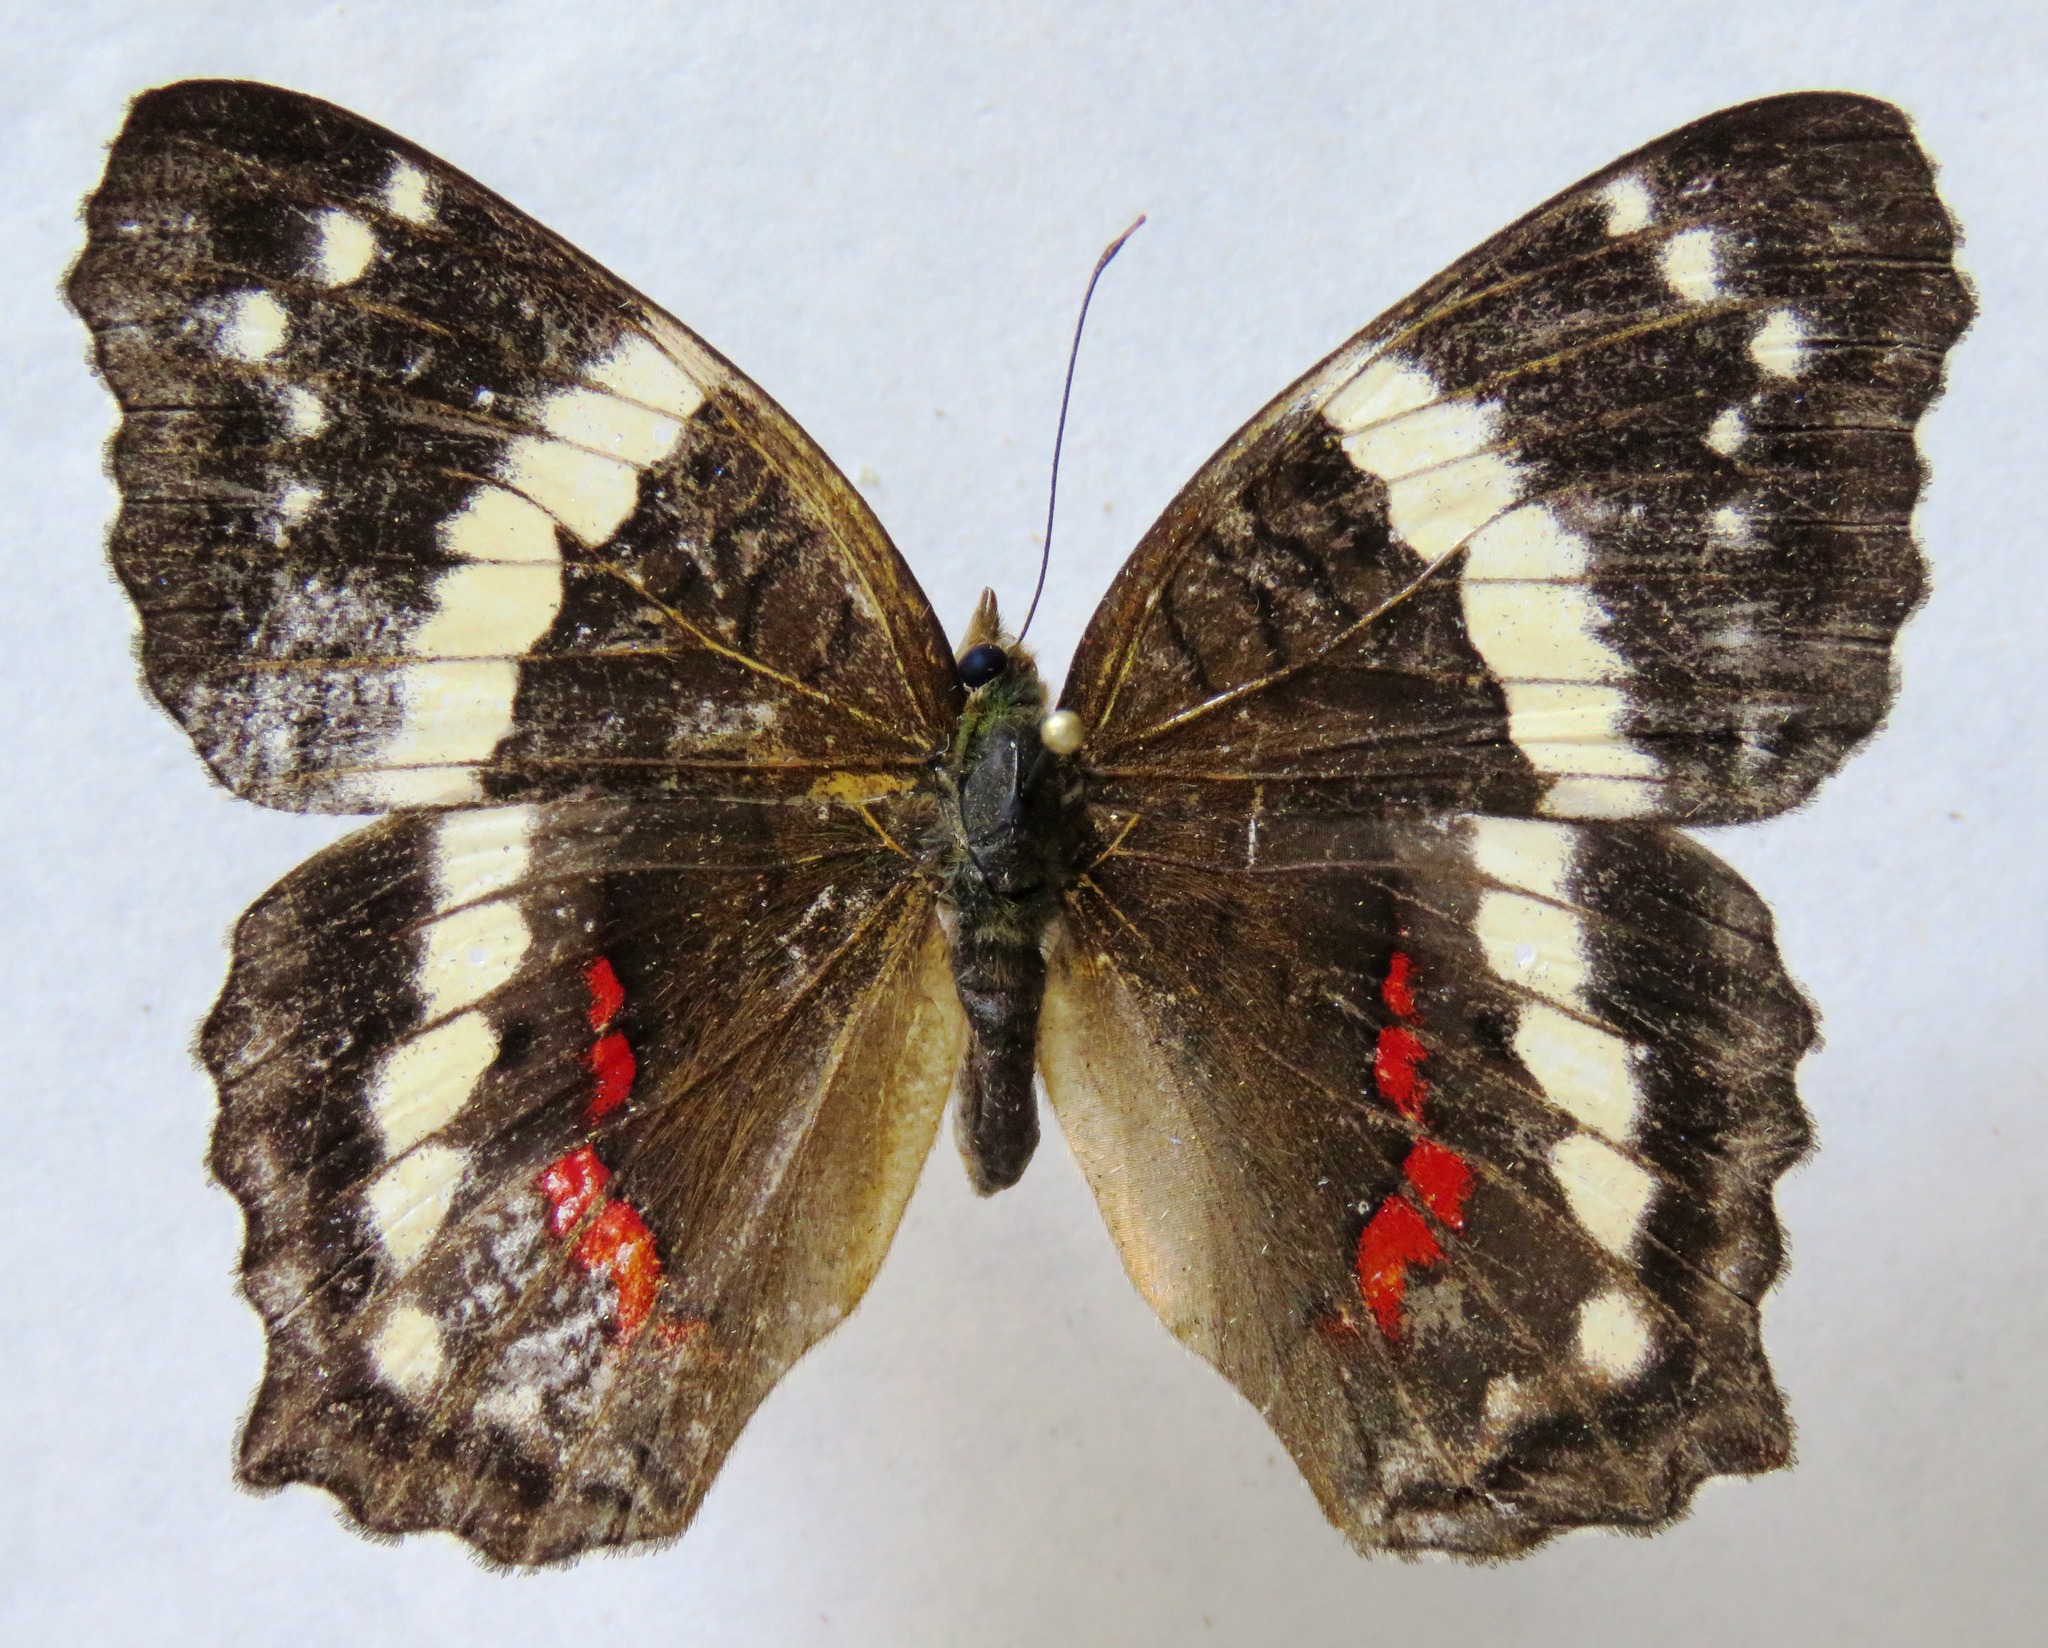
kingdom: Animalia
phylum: Arthropoda
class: Insecta
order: Lepidoptera
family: Nymphalidae
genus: Anartia
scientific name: Anartia fatima
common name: Banded peacock
